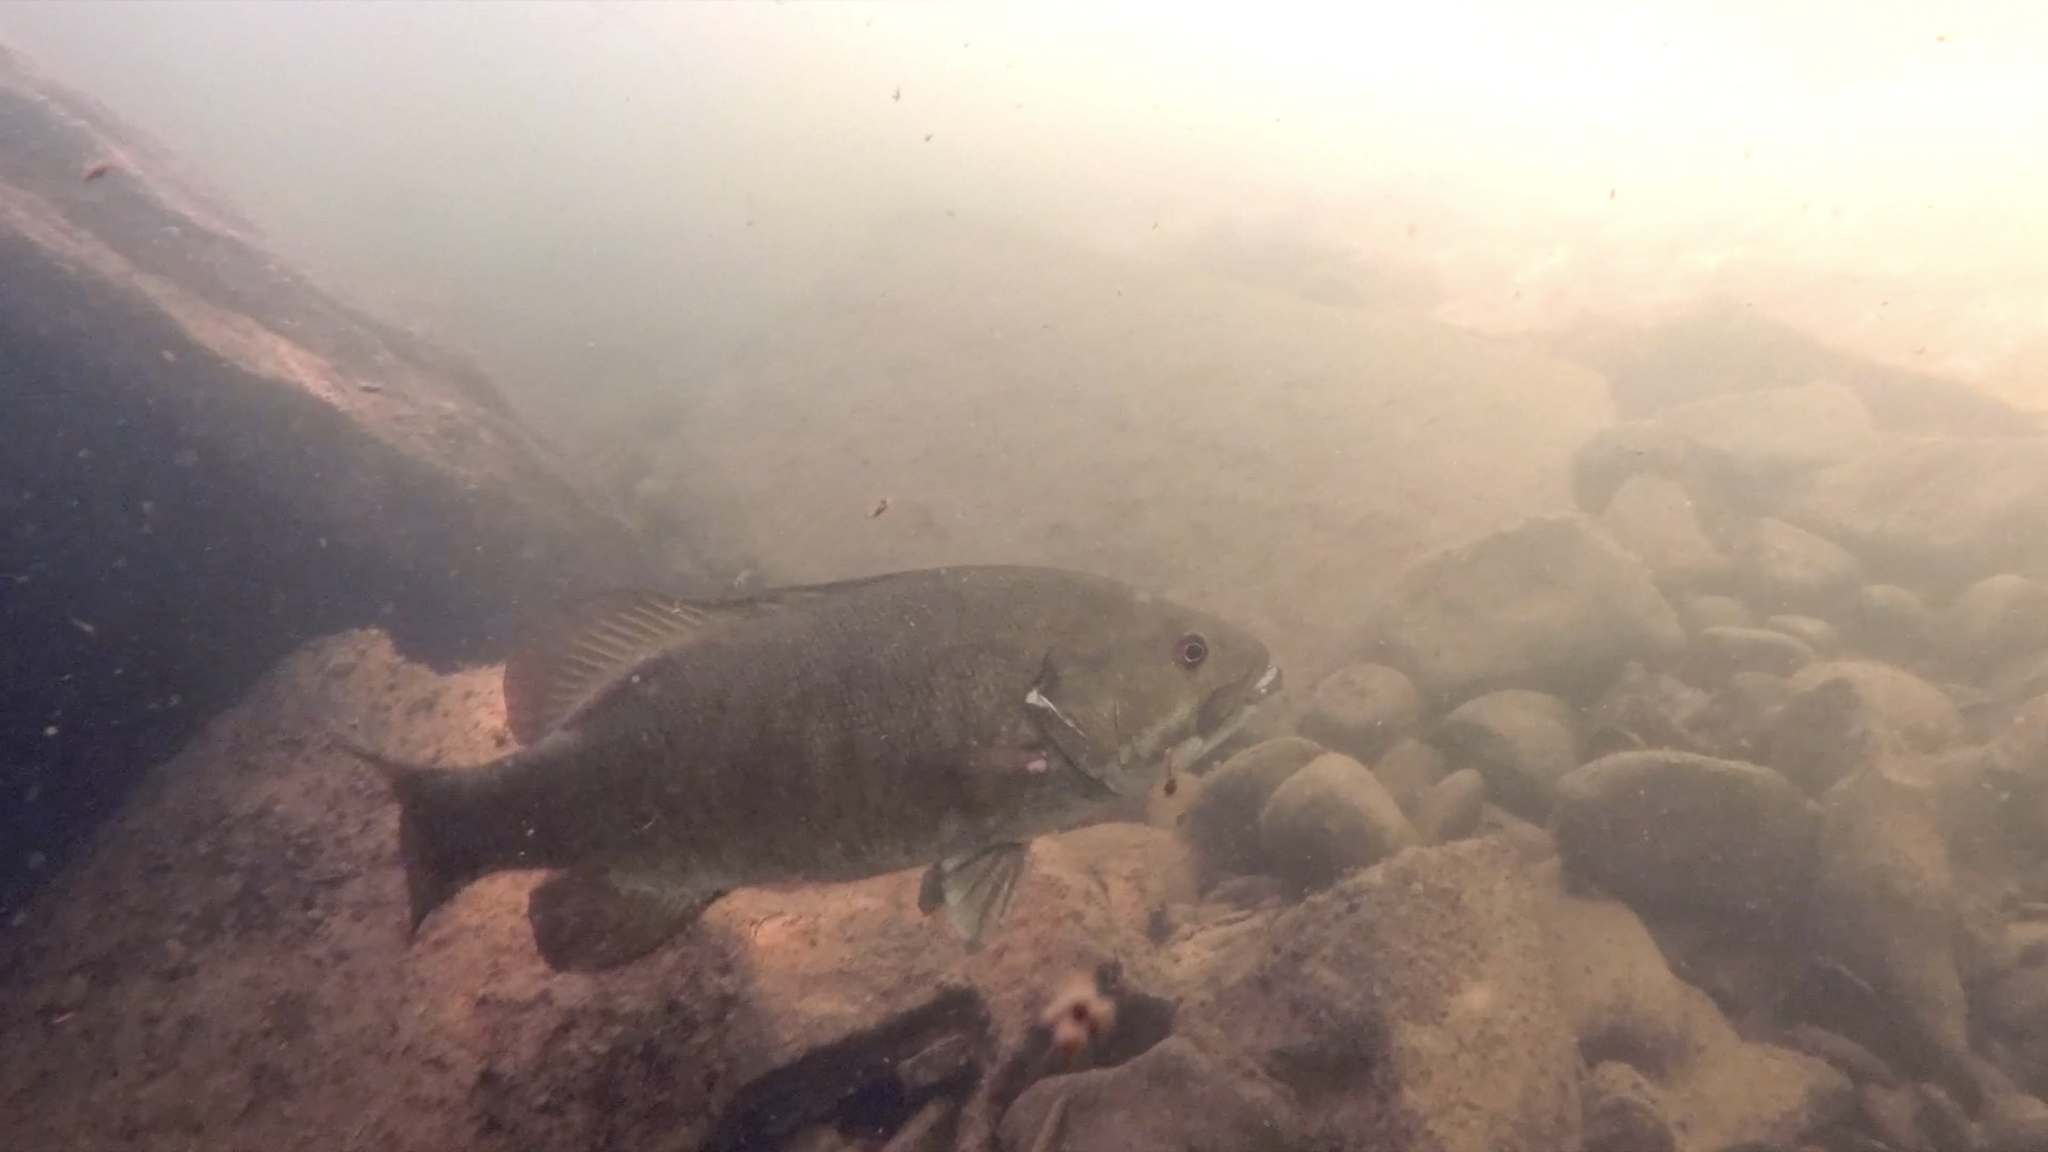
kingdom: Animalia
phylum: Chordata
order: Perciformes
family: Centrarchidae
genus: Micropterus
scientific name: Micropterus dolomieu
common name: Smallmouth bass
